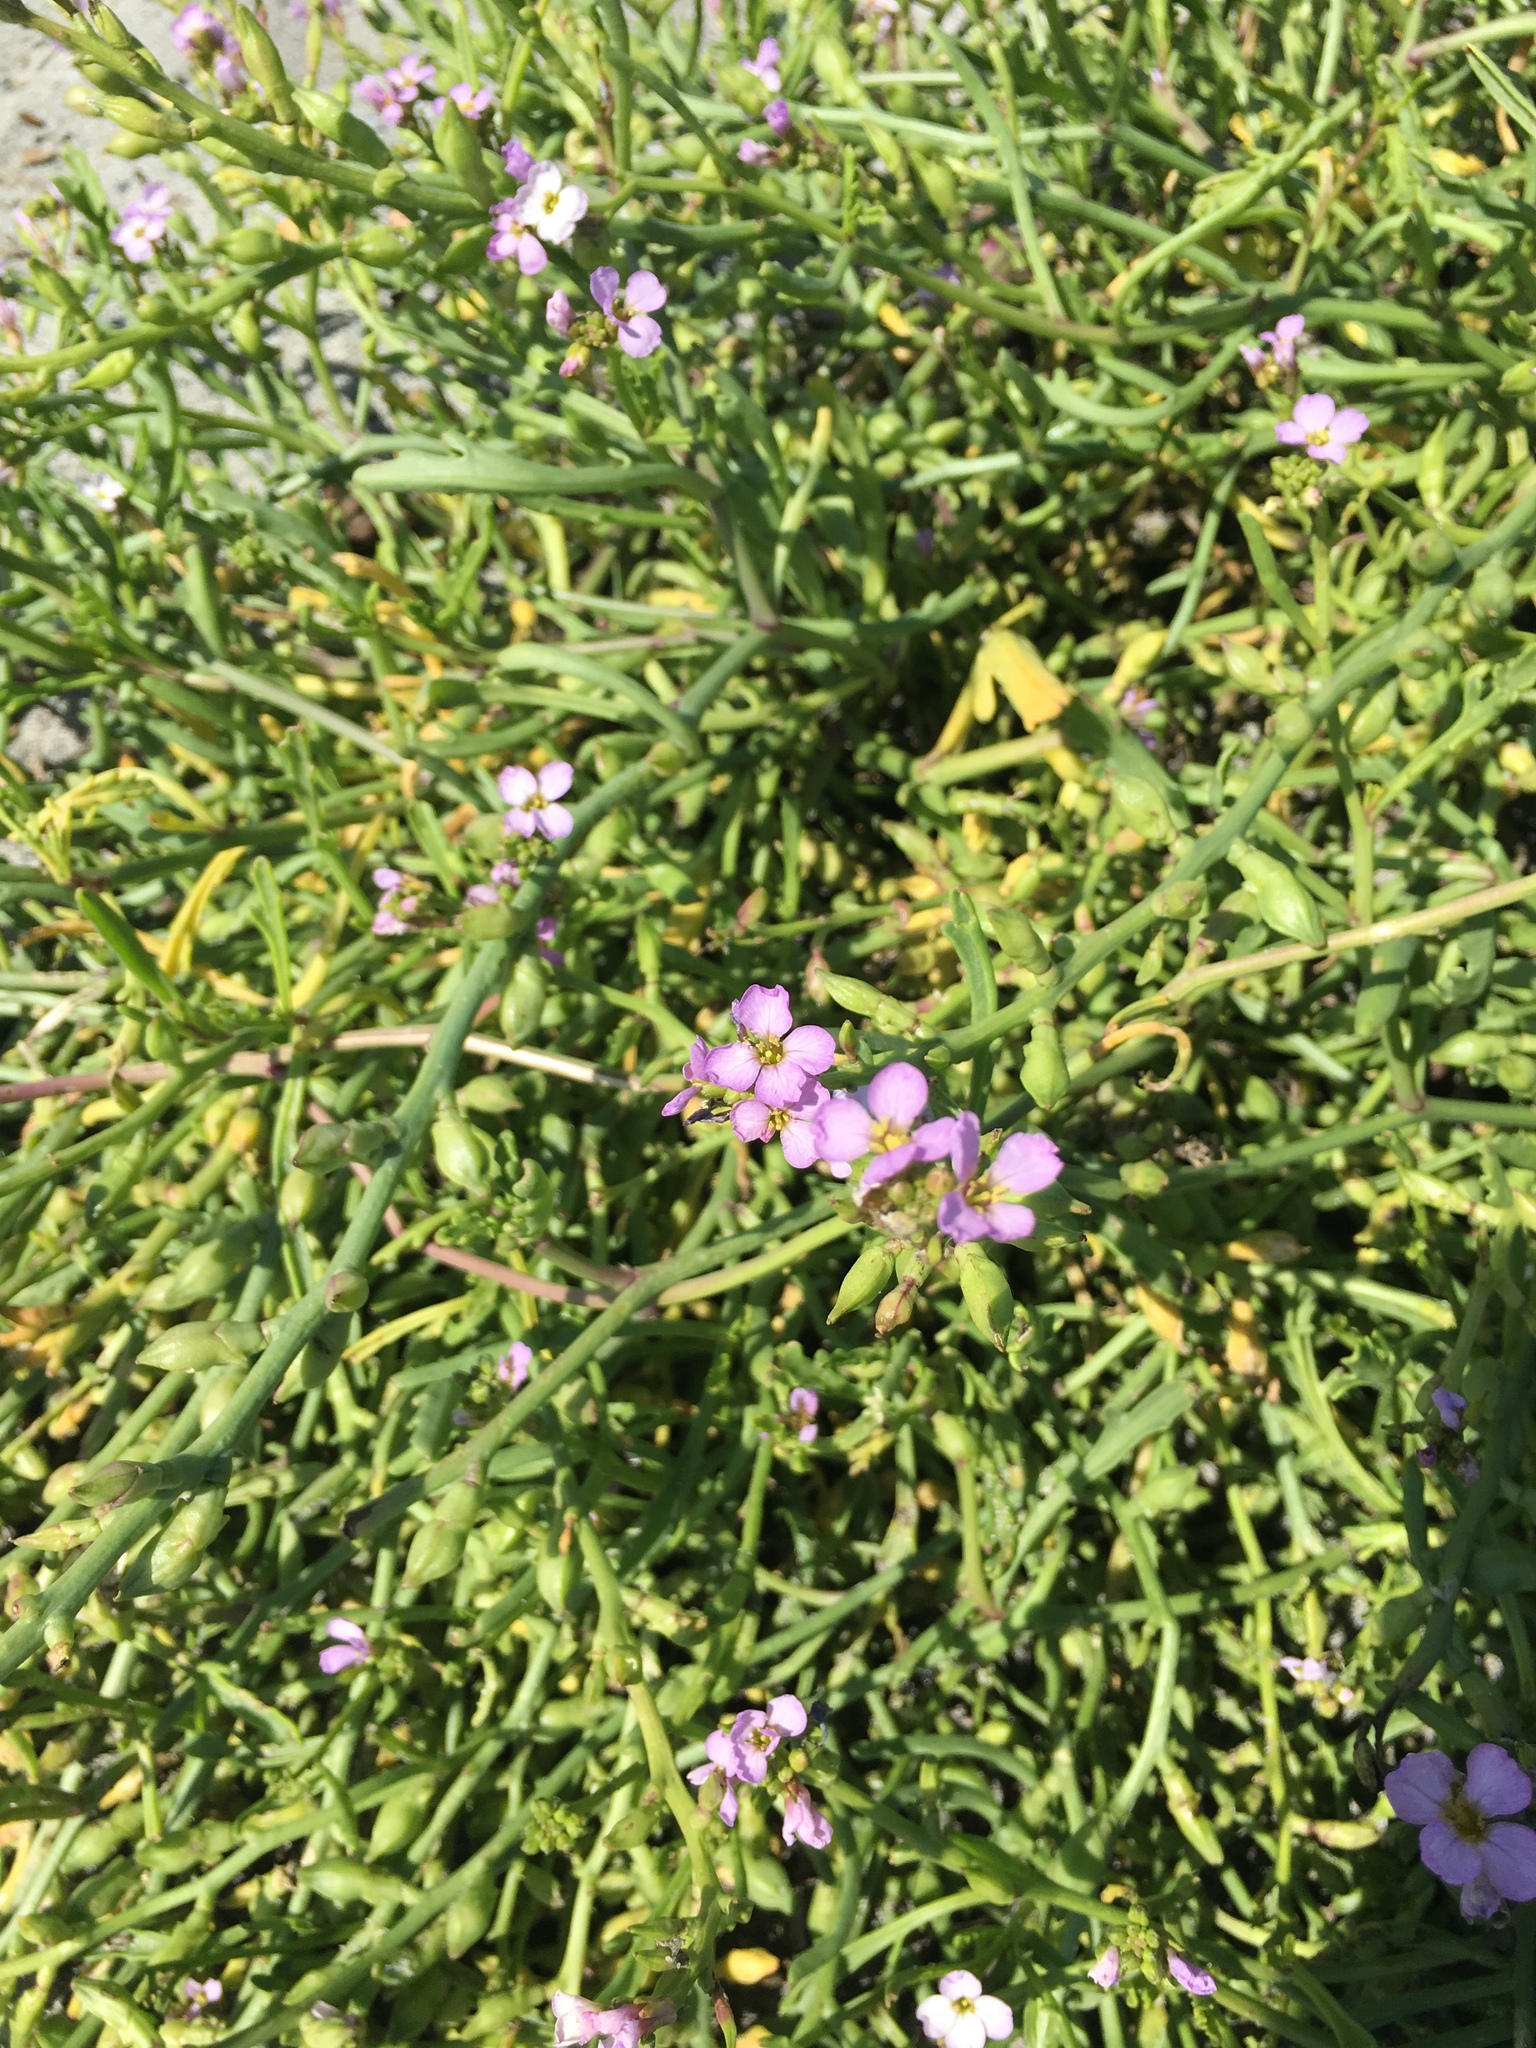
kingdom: Plantae
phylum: Tracheophyta
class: Magnoliopsida
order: Brassicales
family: Brassicaceae
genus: Cakile
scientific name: Cakile maritima
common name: Sea rocket
